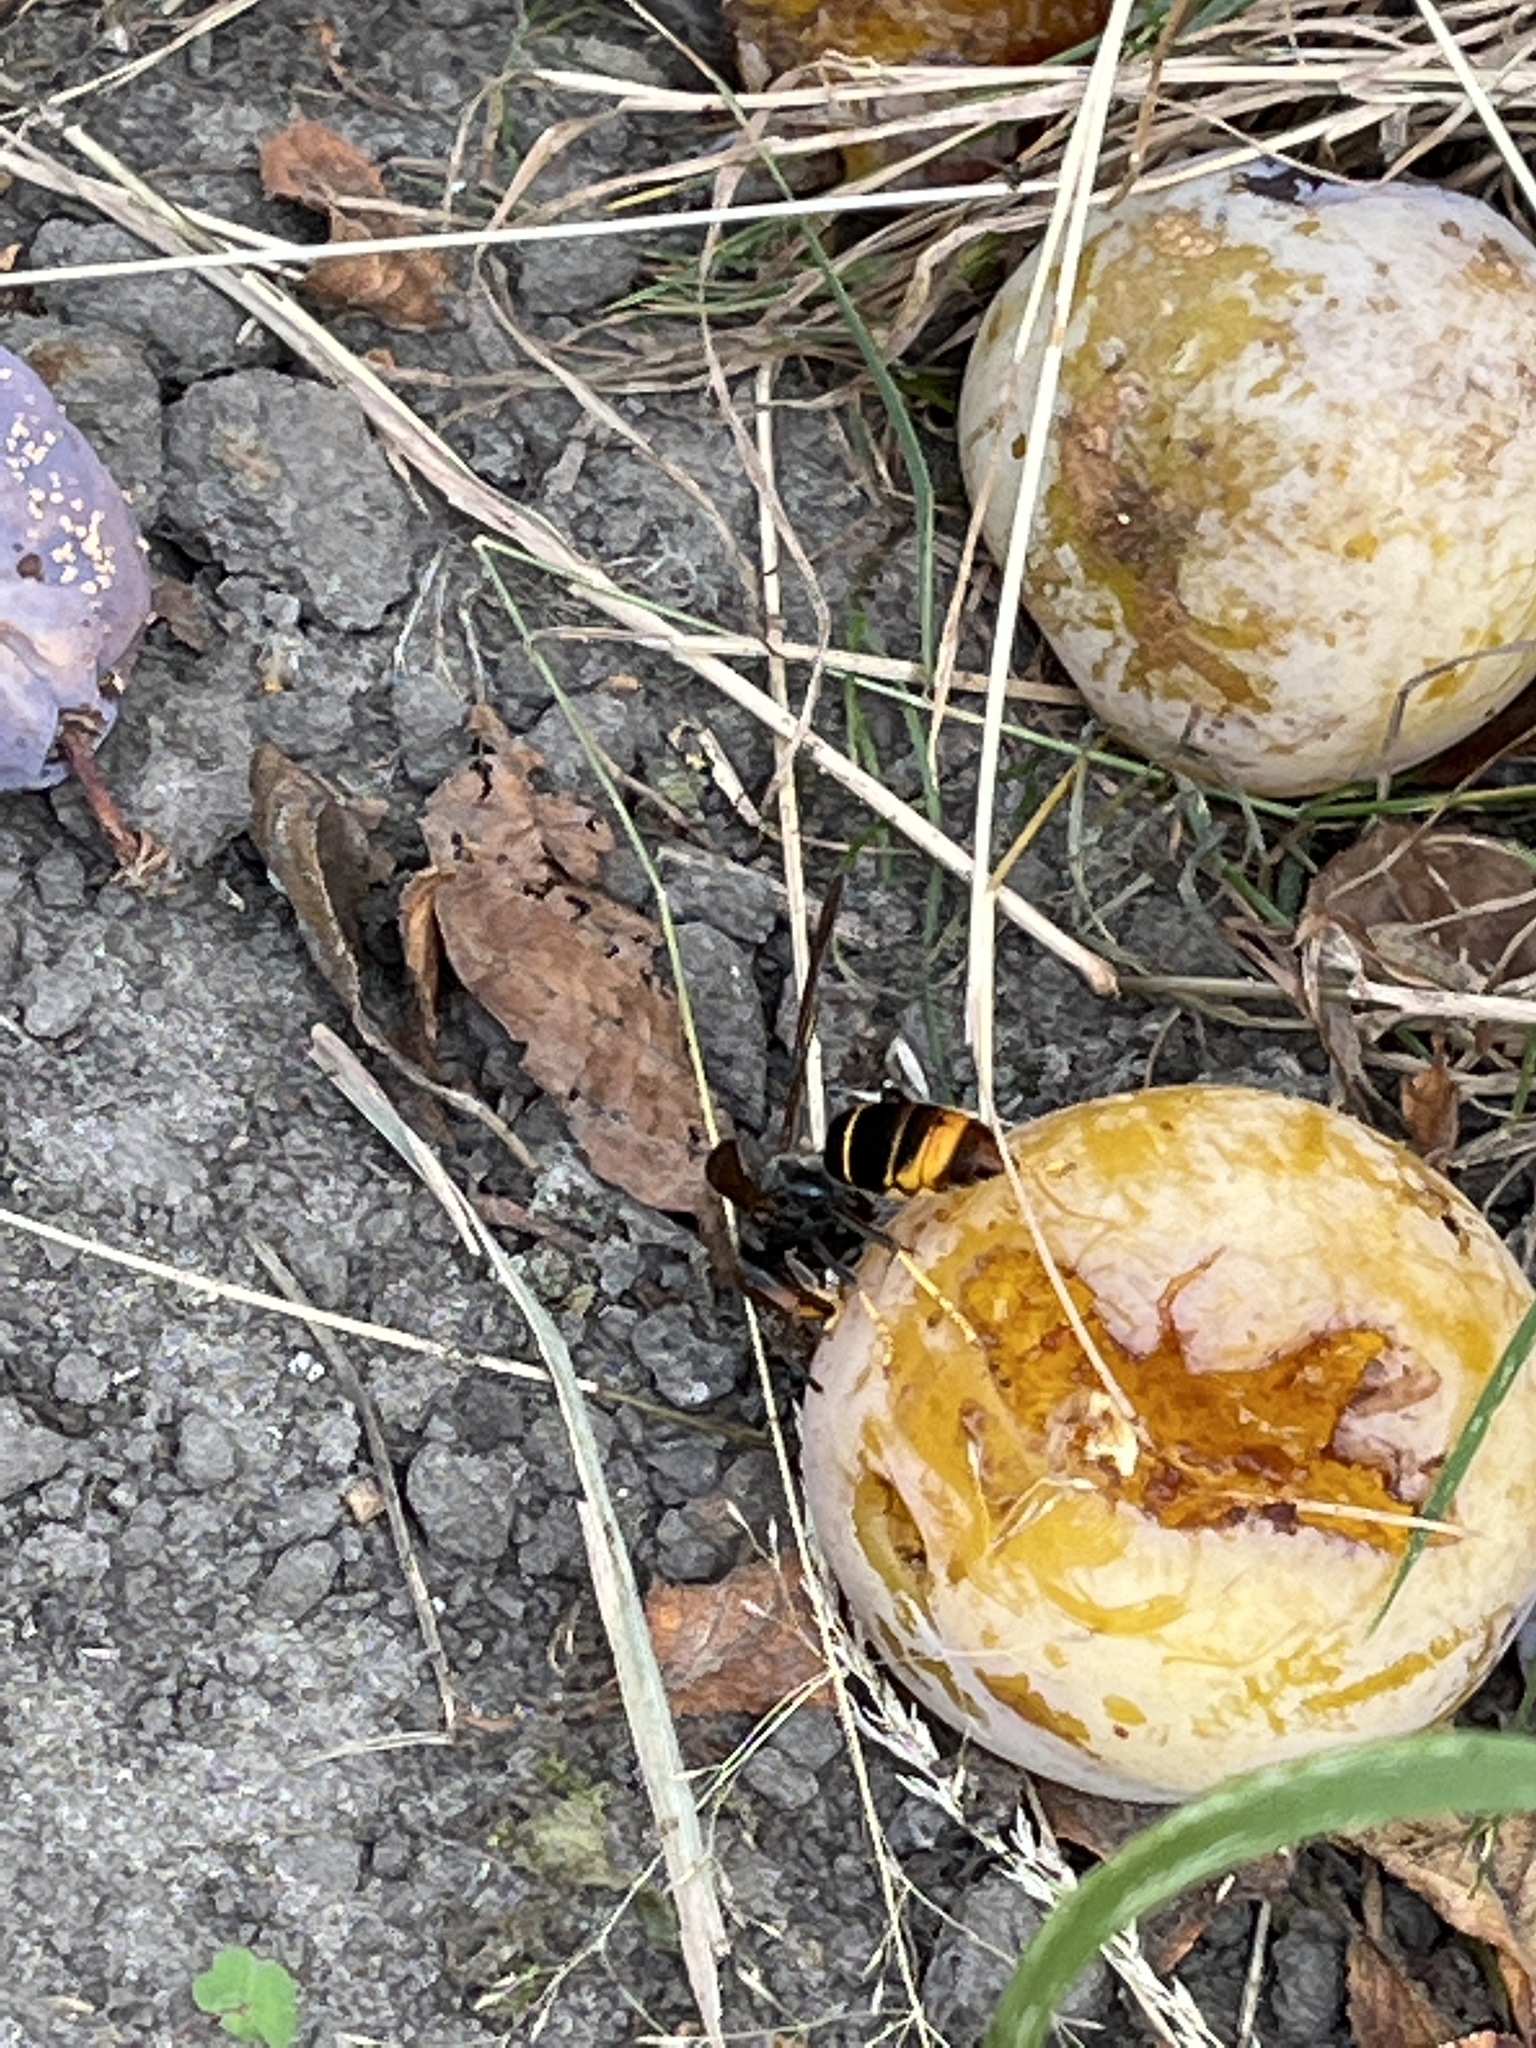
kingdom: Animalia
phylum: Arthropoda
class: Insecta
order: Hymenoptera
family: Vespidae
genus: Vespa
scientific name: Vespa velutina
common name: Asian hornet
